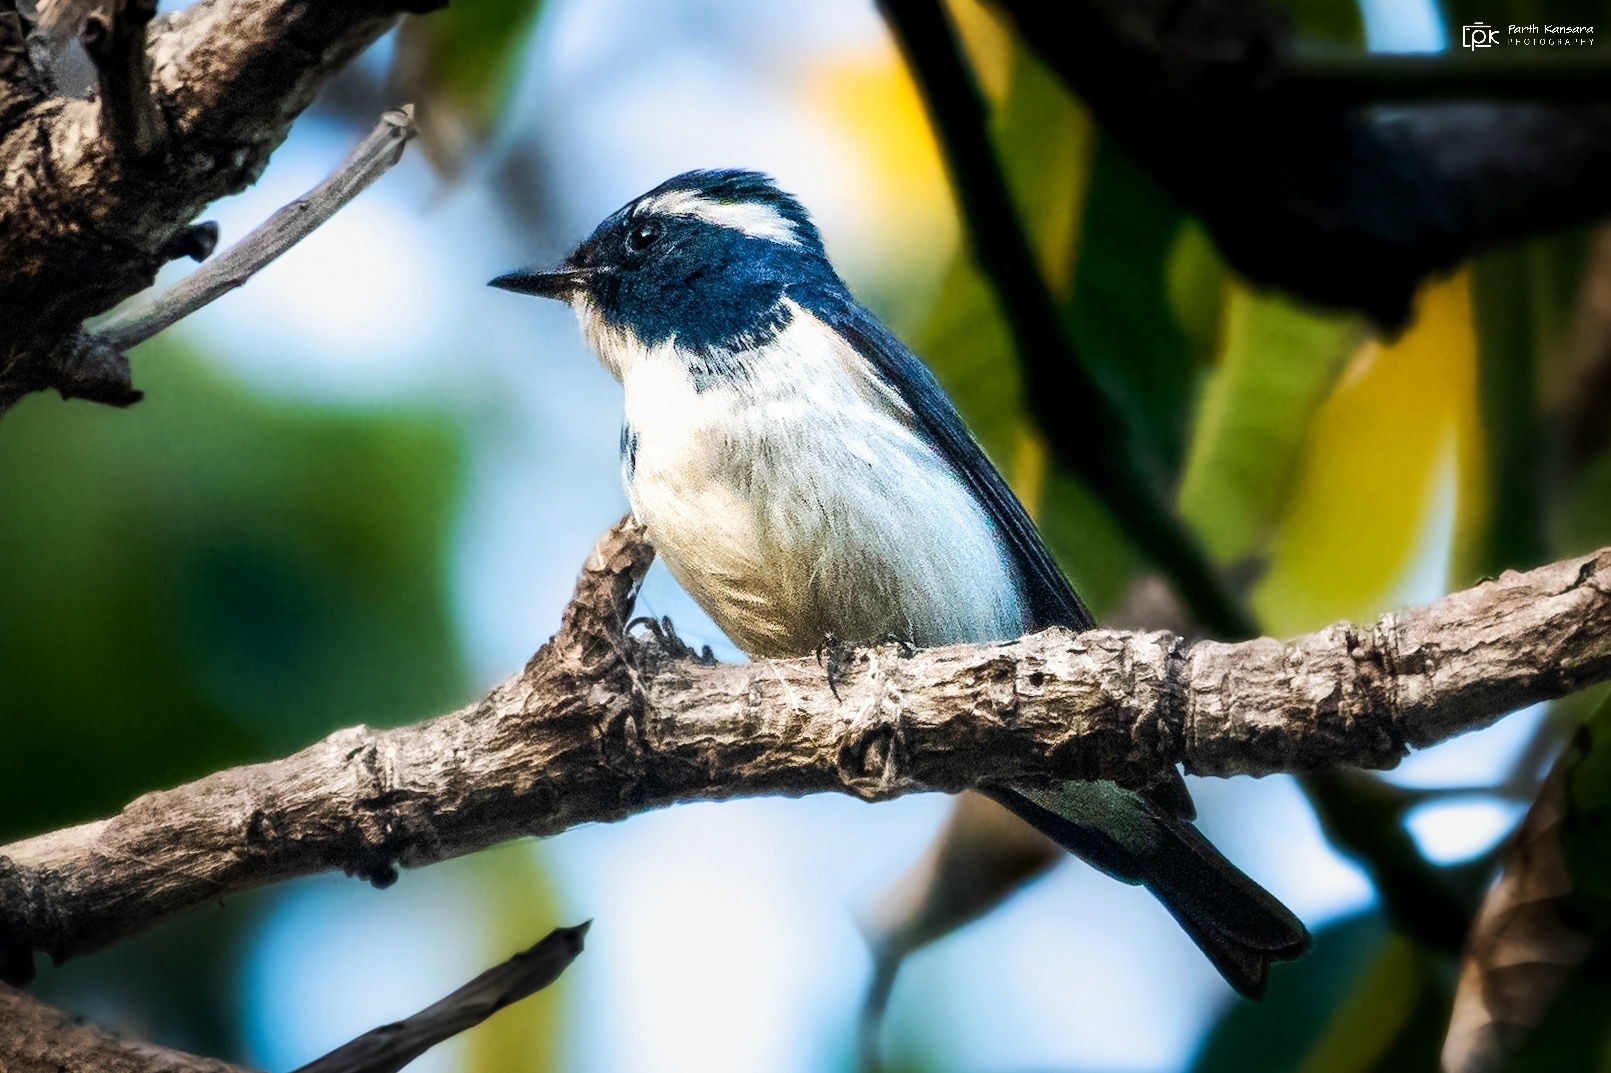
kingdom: Animalia
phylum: Chordata
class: Aves
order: Passeriformes
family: Muscicapidae
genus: Ficedula
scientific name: Ficedula superciliaris
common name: Ultramarine flycatcher
